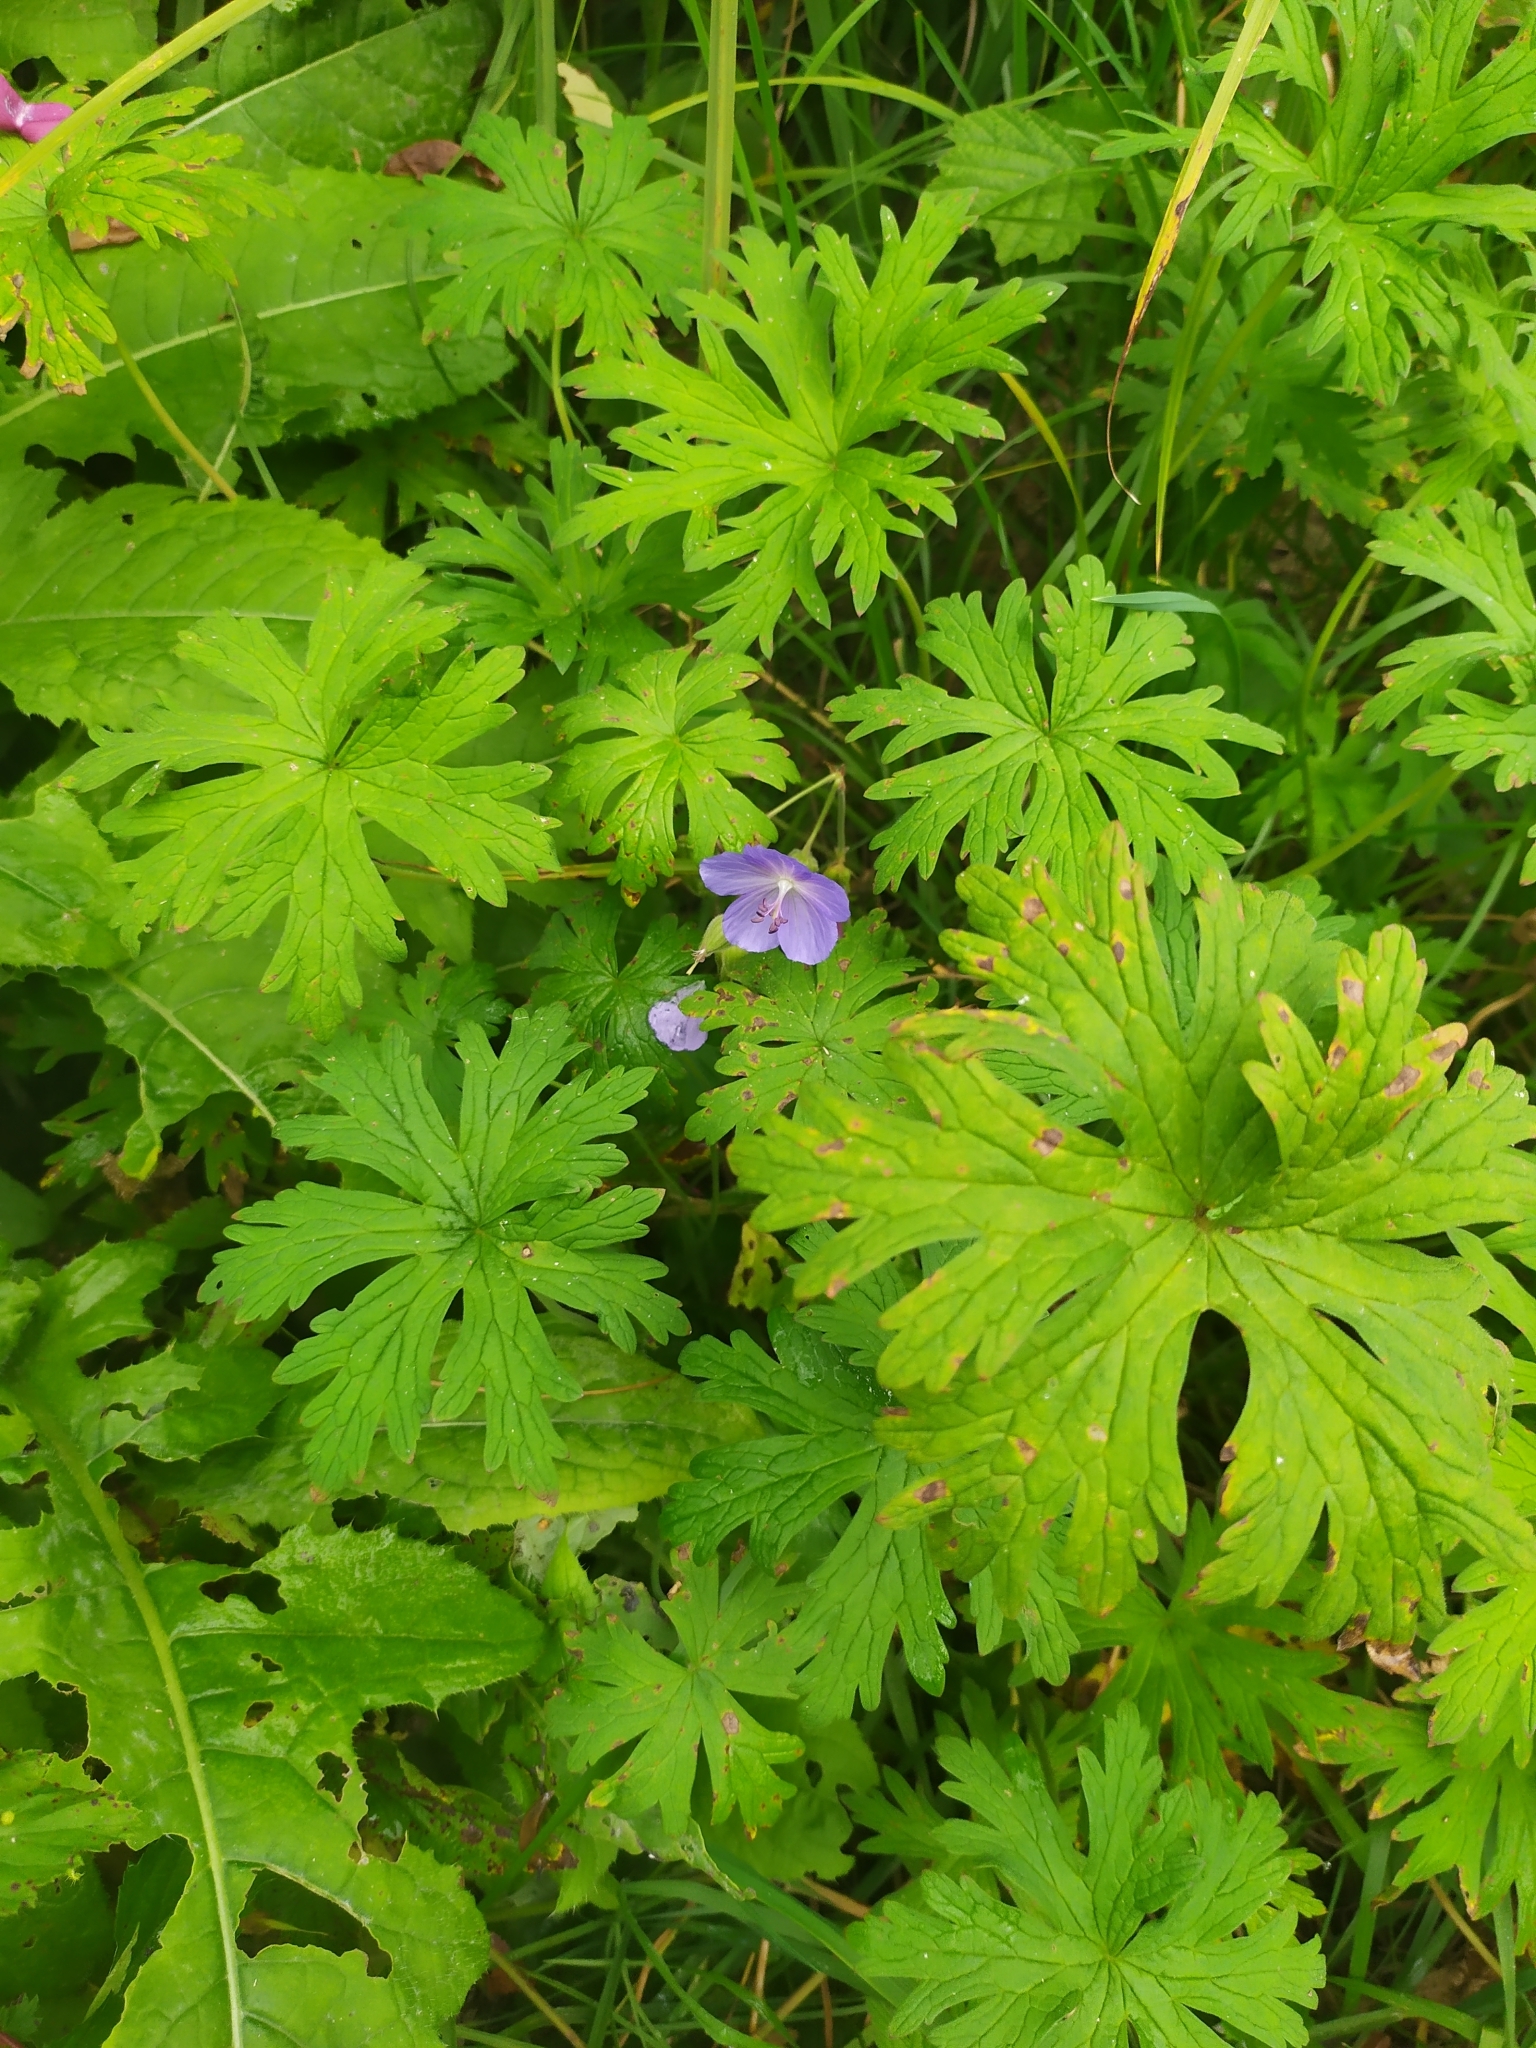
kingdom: Plantae
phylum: Tracheophyta
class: Magnoliopsida
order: Geraniales
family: Geraniaceae
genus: Geranium
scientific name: Geranium pratense
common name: Meadow crane's-bill
